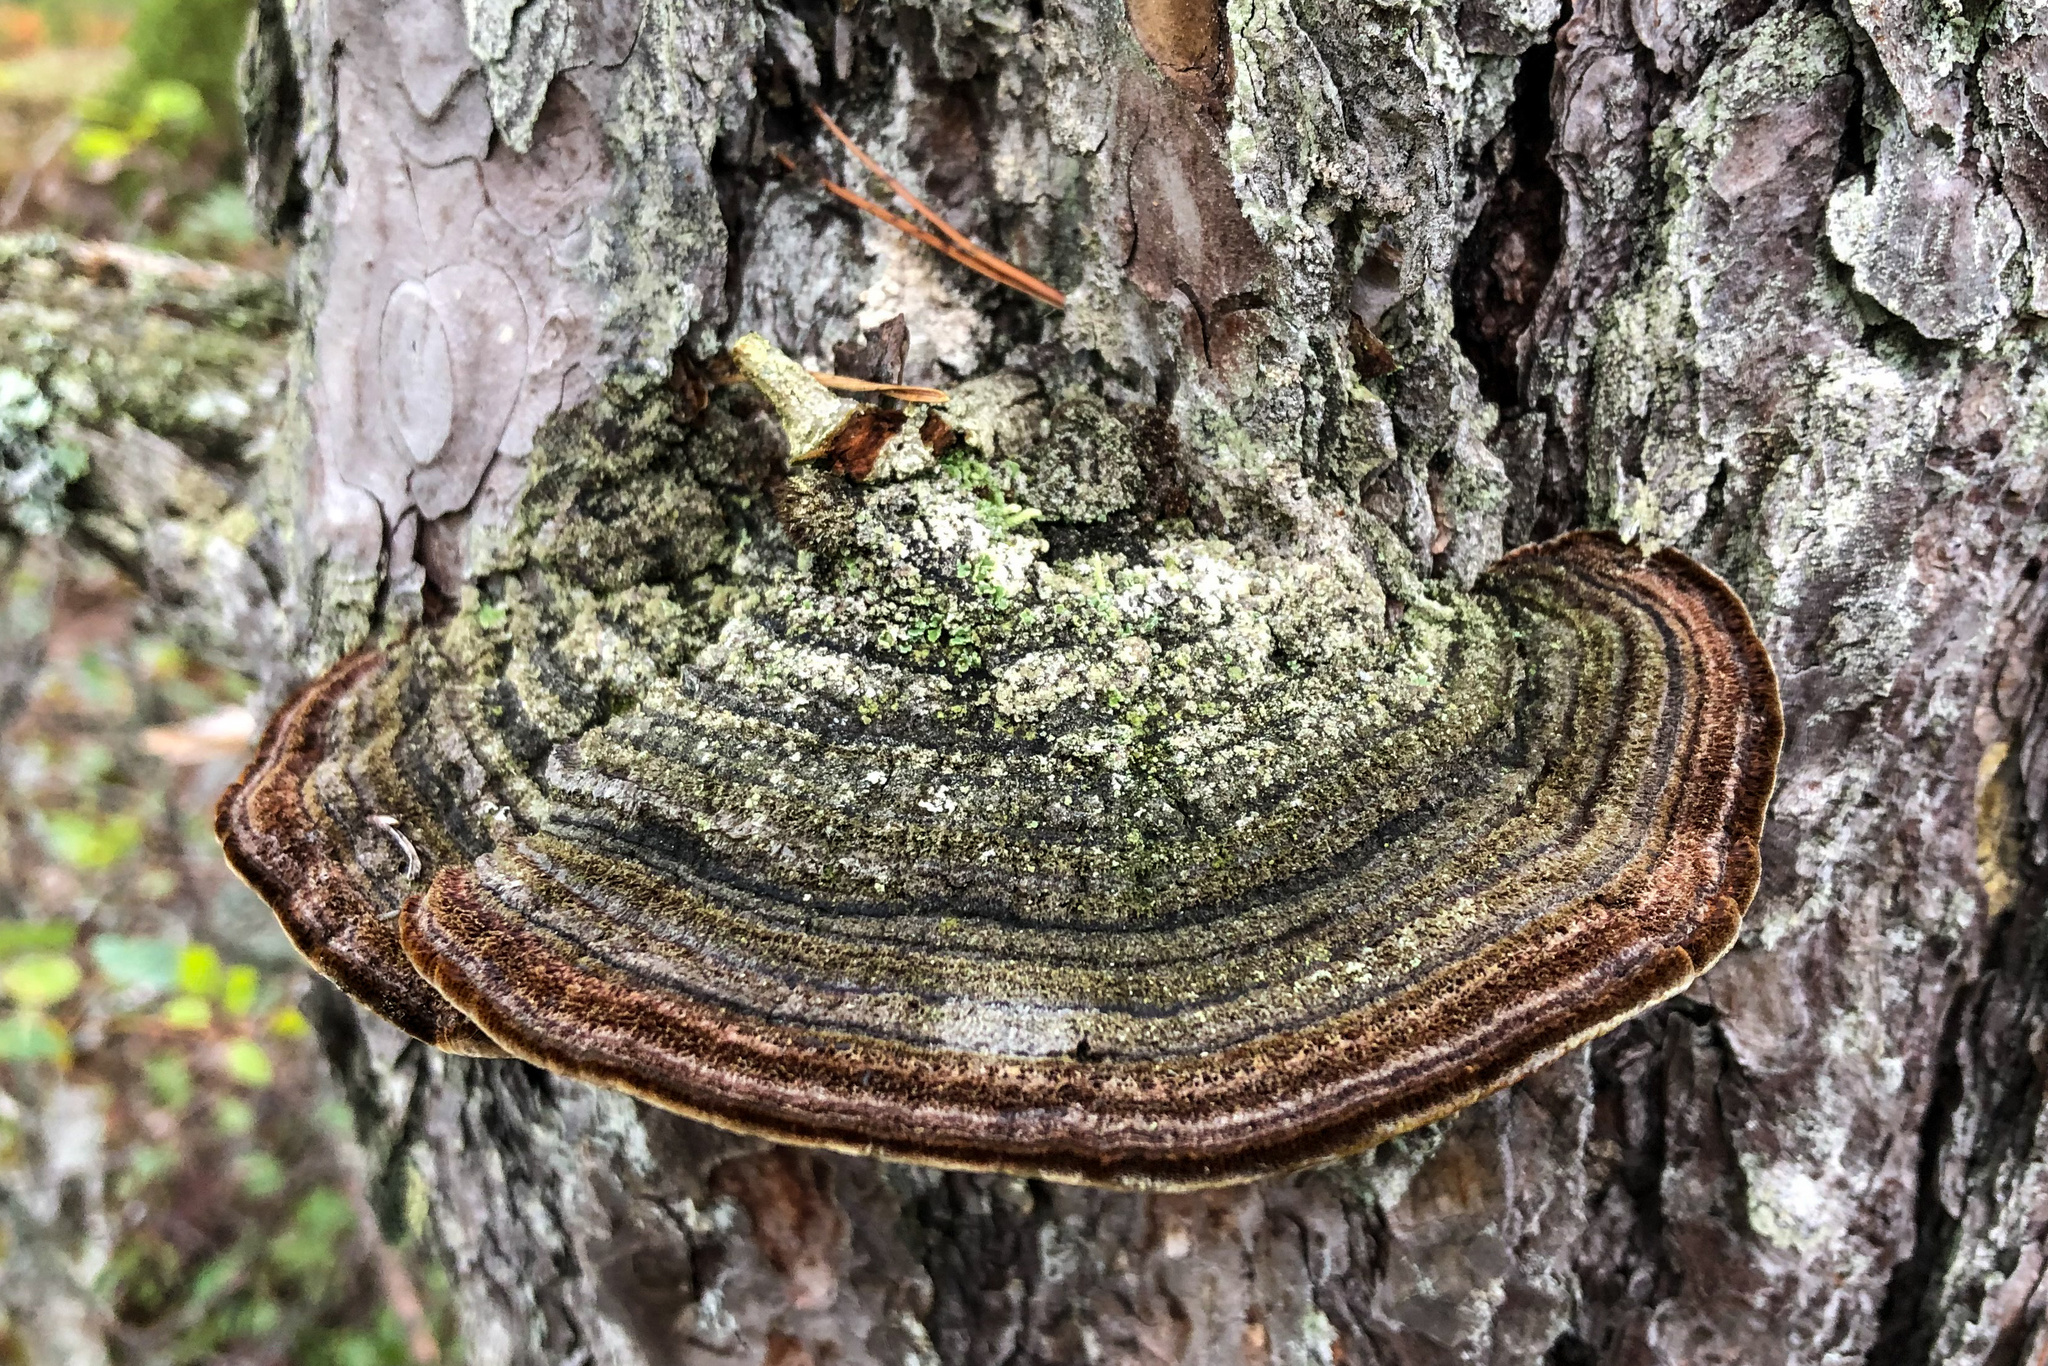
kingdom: Fungi
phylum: Basidiomycota
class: Agaricomycetes
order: Hymenochaetales
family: Hymenochaetaceae
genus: Porodaedalea
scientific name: Porodaedalea pini
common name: Pine bracket
